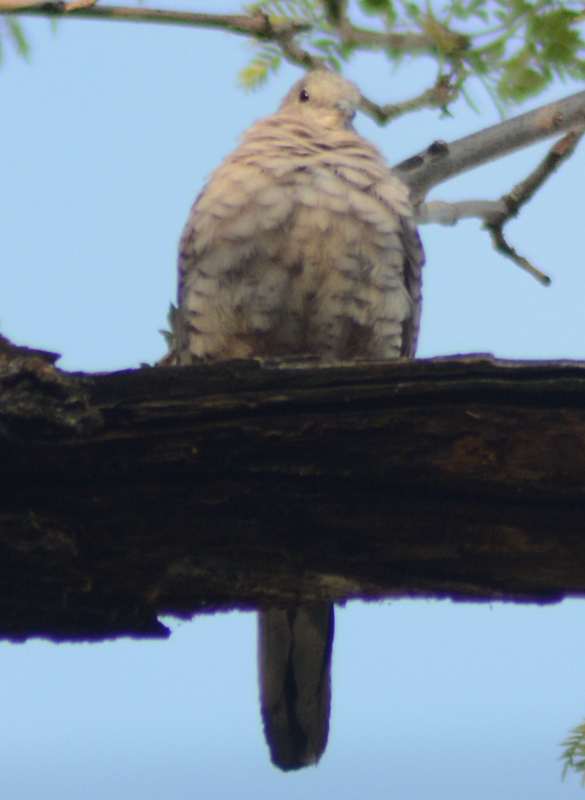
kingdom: Animalia
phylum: Chordata
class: Aves
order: Columbiformes
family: Columbidae
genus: Columbina
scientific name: Columbina inca
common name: Inca dove
